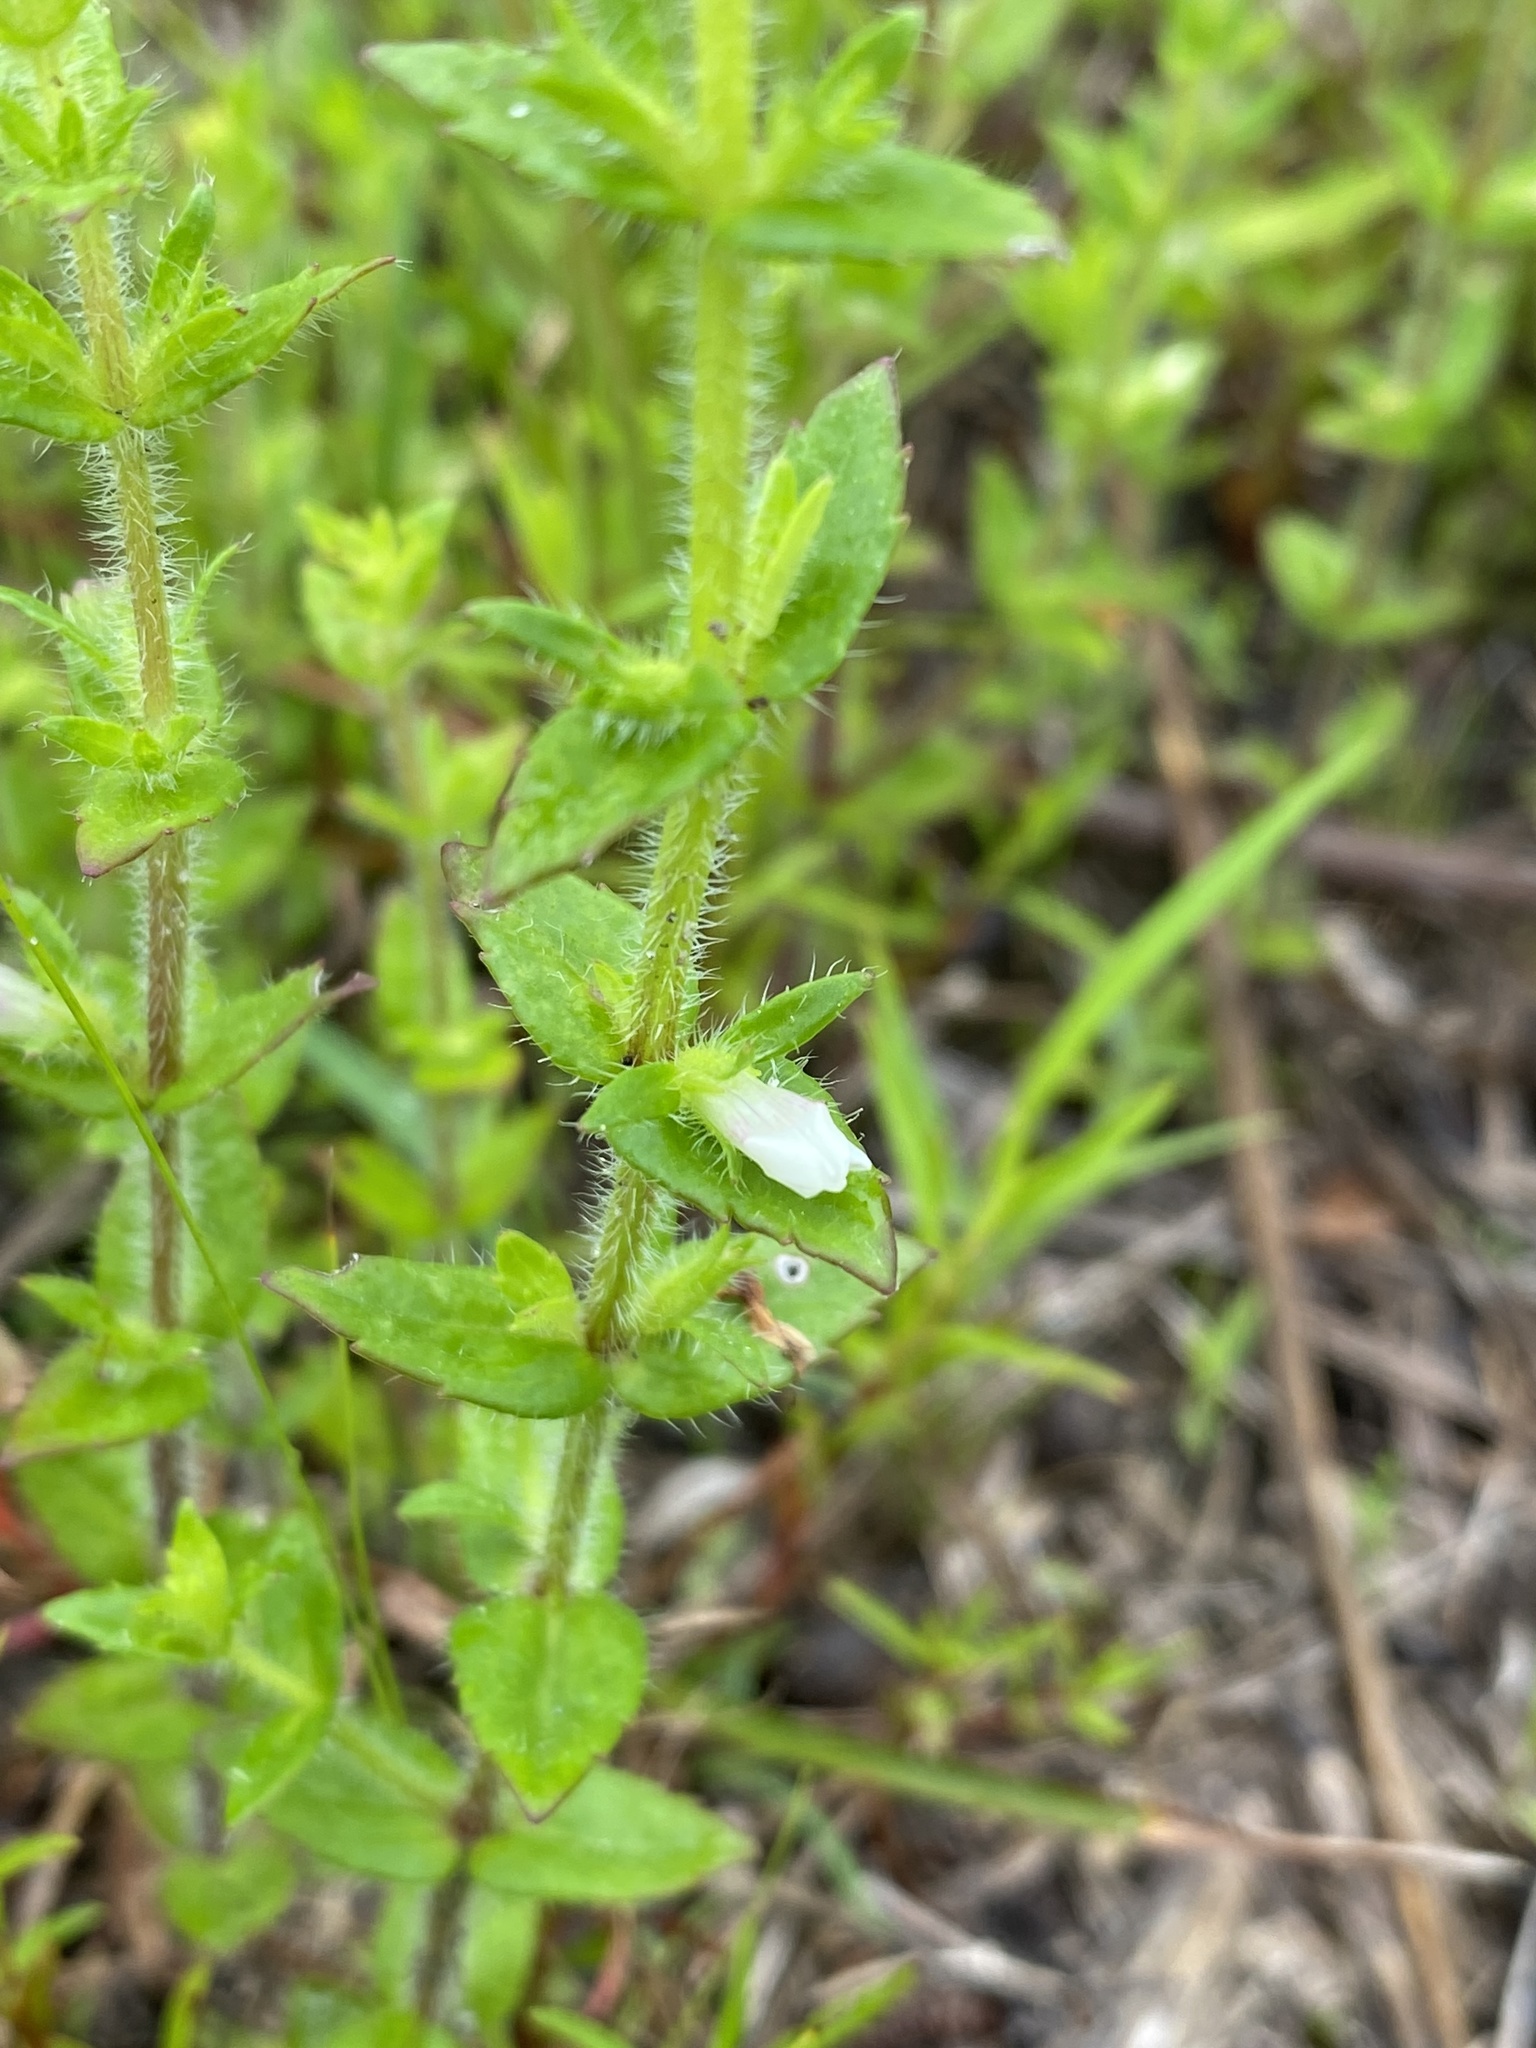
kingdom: Plantae
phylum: Tracheophyta
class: Magnoliopsida
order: Lamiales
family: Plantaginaceae
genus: Gratiola
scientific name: Gratiola pilosa
